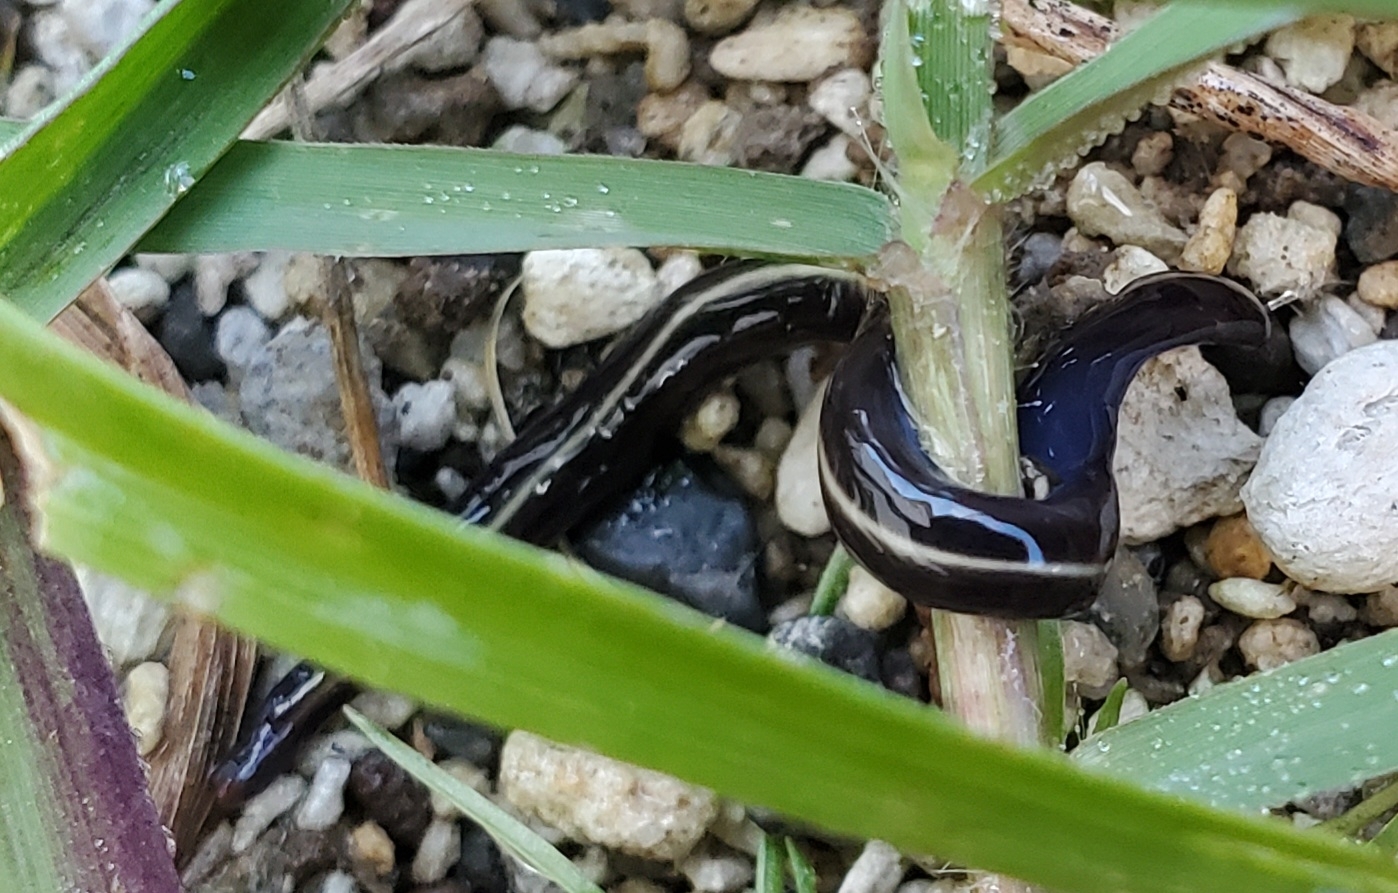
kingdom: Animalia
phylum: Platyhelminthes
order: Tricladida
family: Geoplanidae
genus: Caenoplana
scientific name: Caenoplana coerulea
